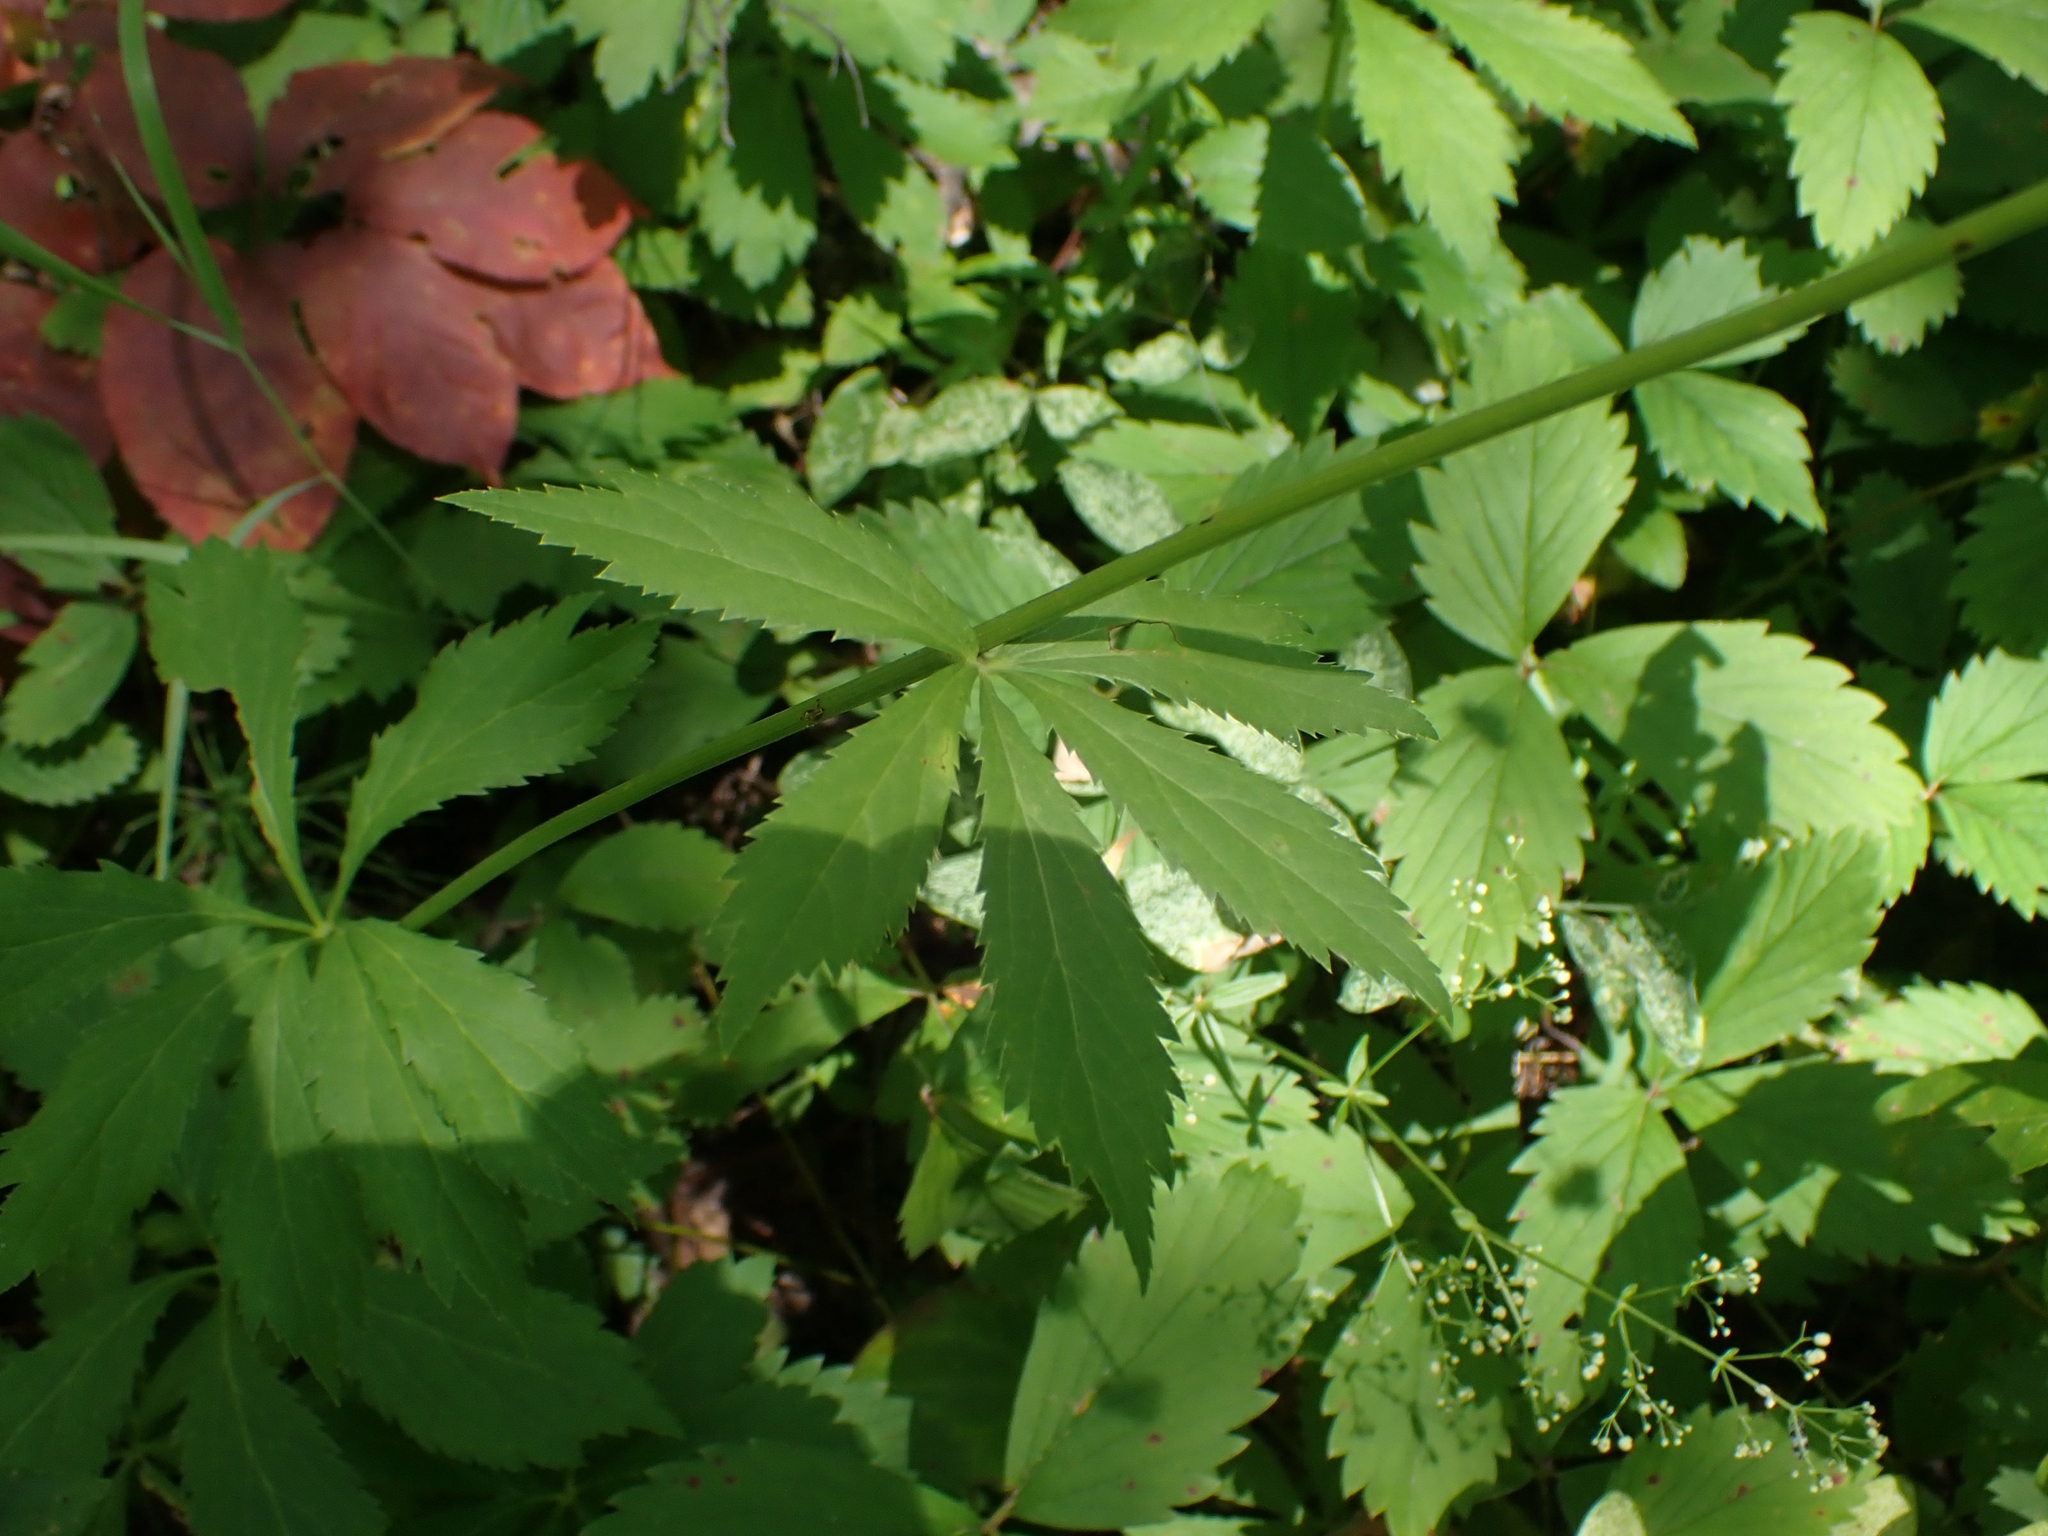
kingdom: Plantae
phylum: Tracheophyta
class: Magnoliopsida
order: Apiales
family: Apiaceae
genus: Sanicula
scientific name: Sanicula marilandica
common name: Black snakeroot
